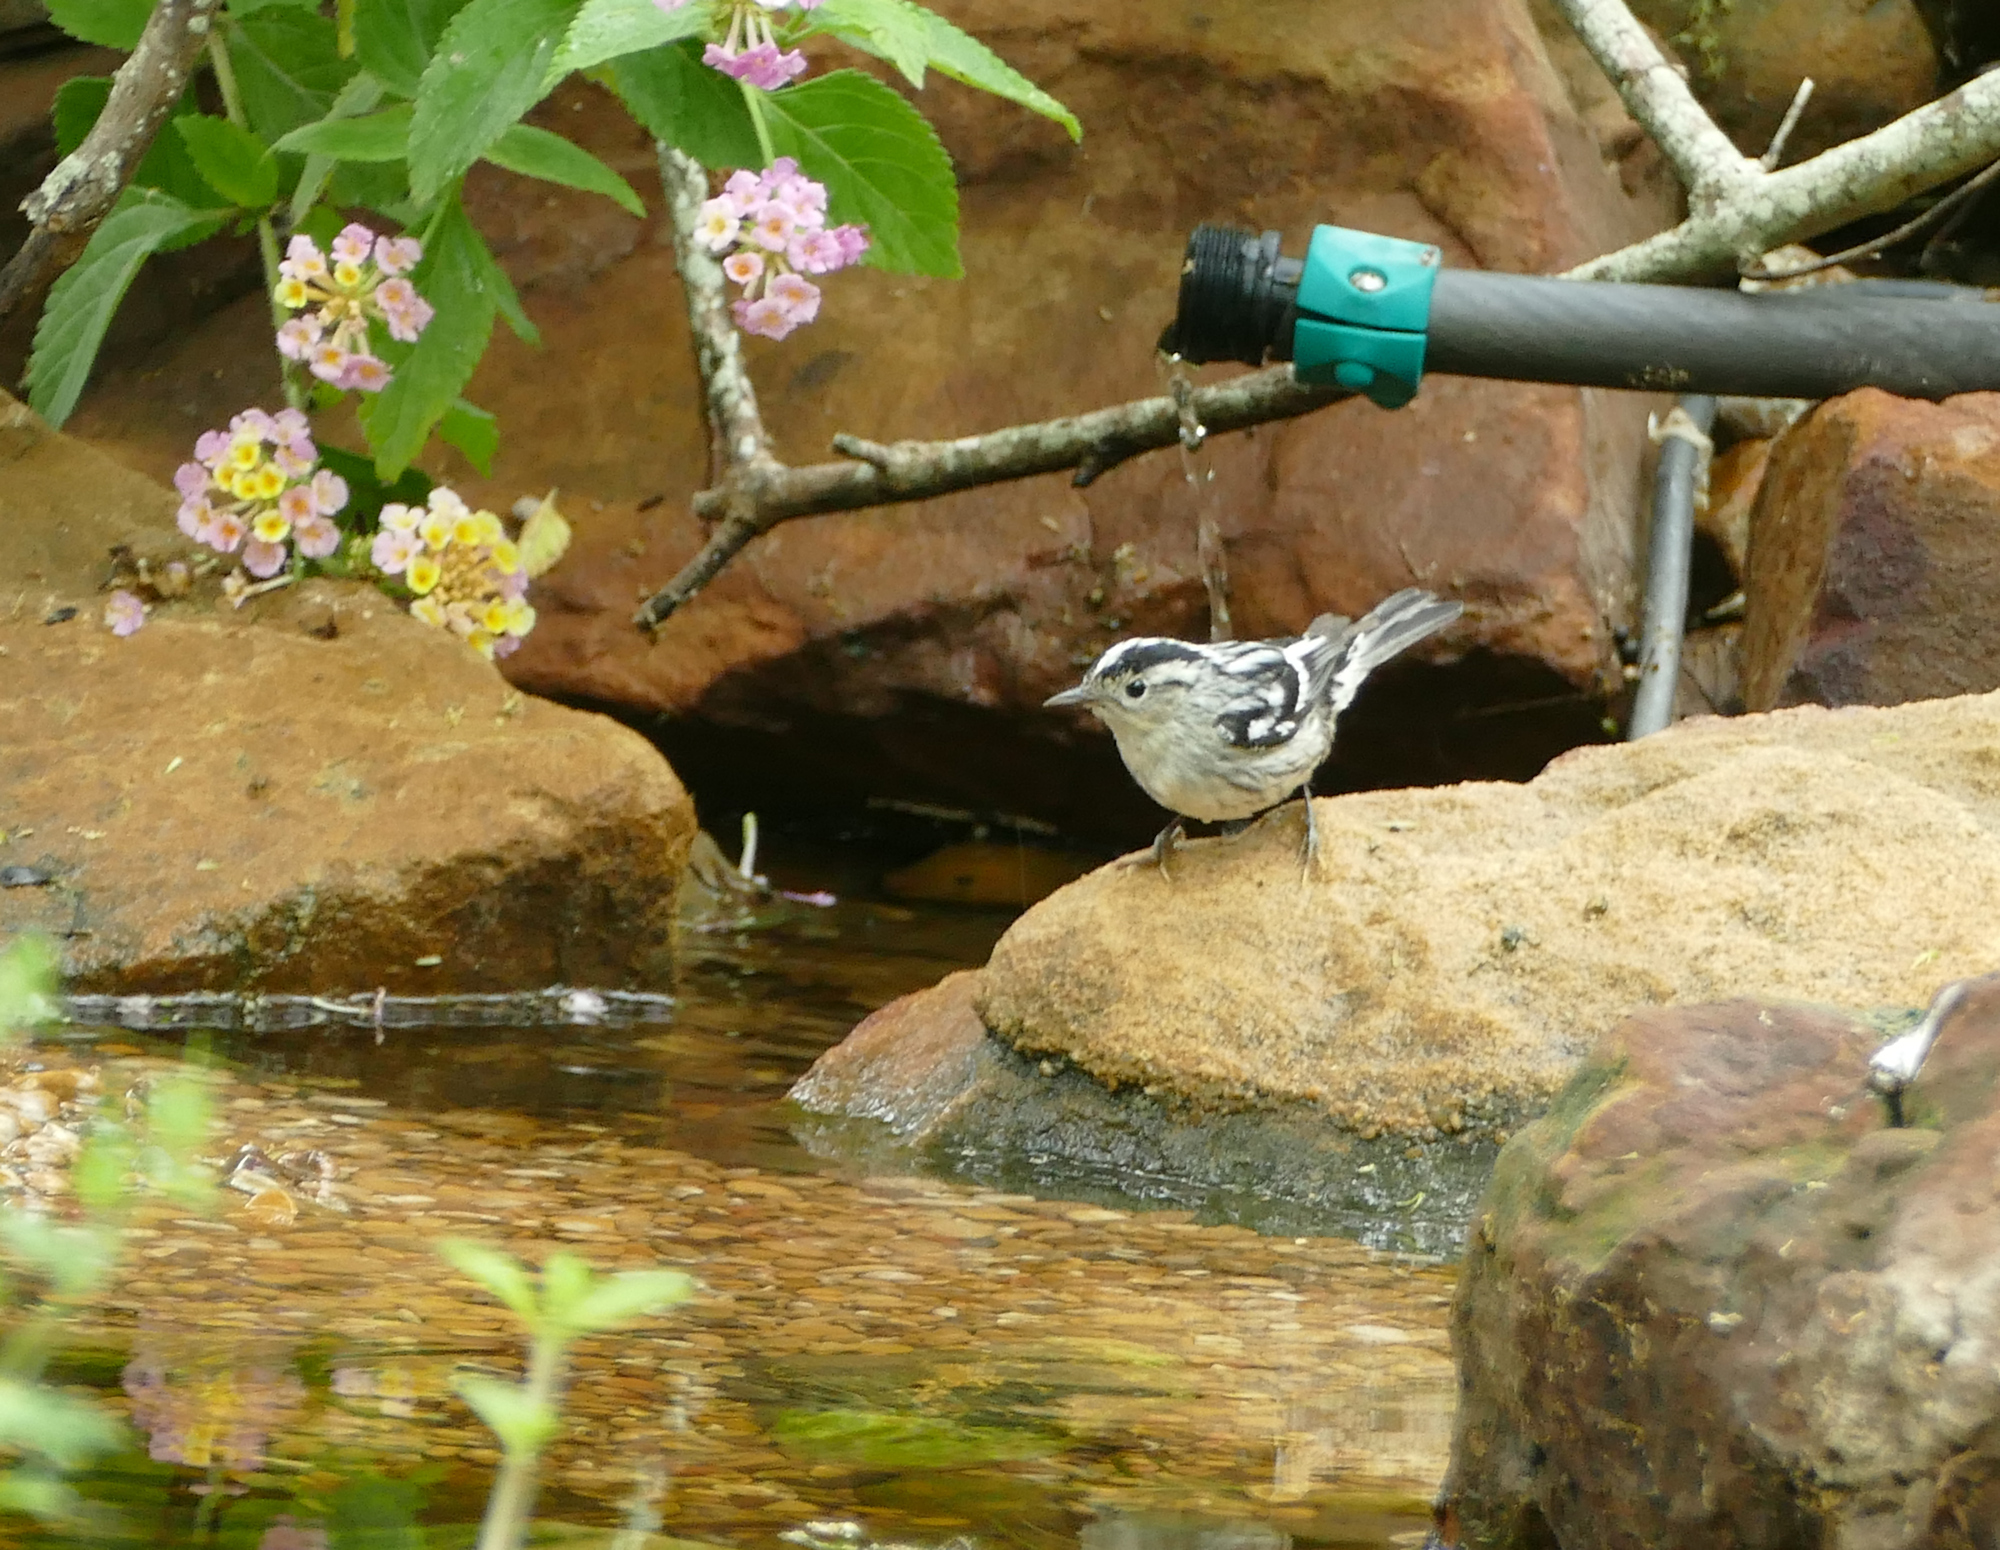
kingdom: Animalia
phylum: Chordata
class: Aves
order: Passeriformes
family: Parulidae
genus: Mniotilta
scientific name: Mniotilta varia
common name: Black-and-white warbler
